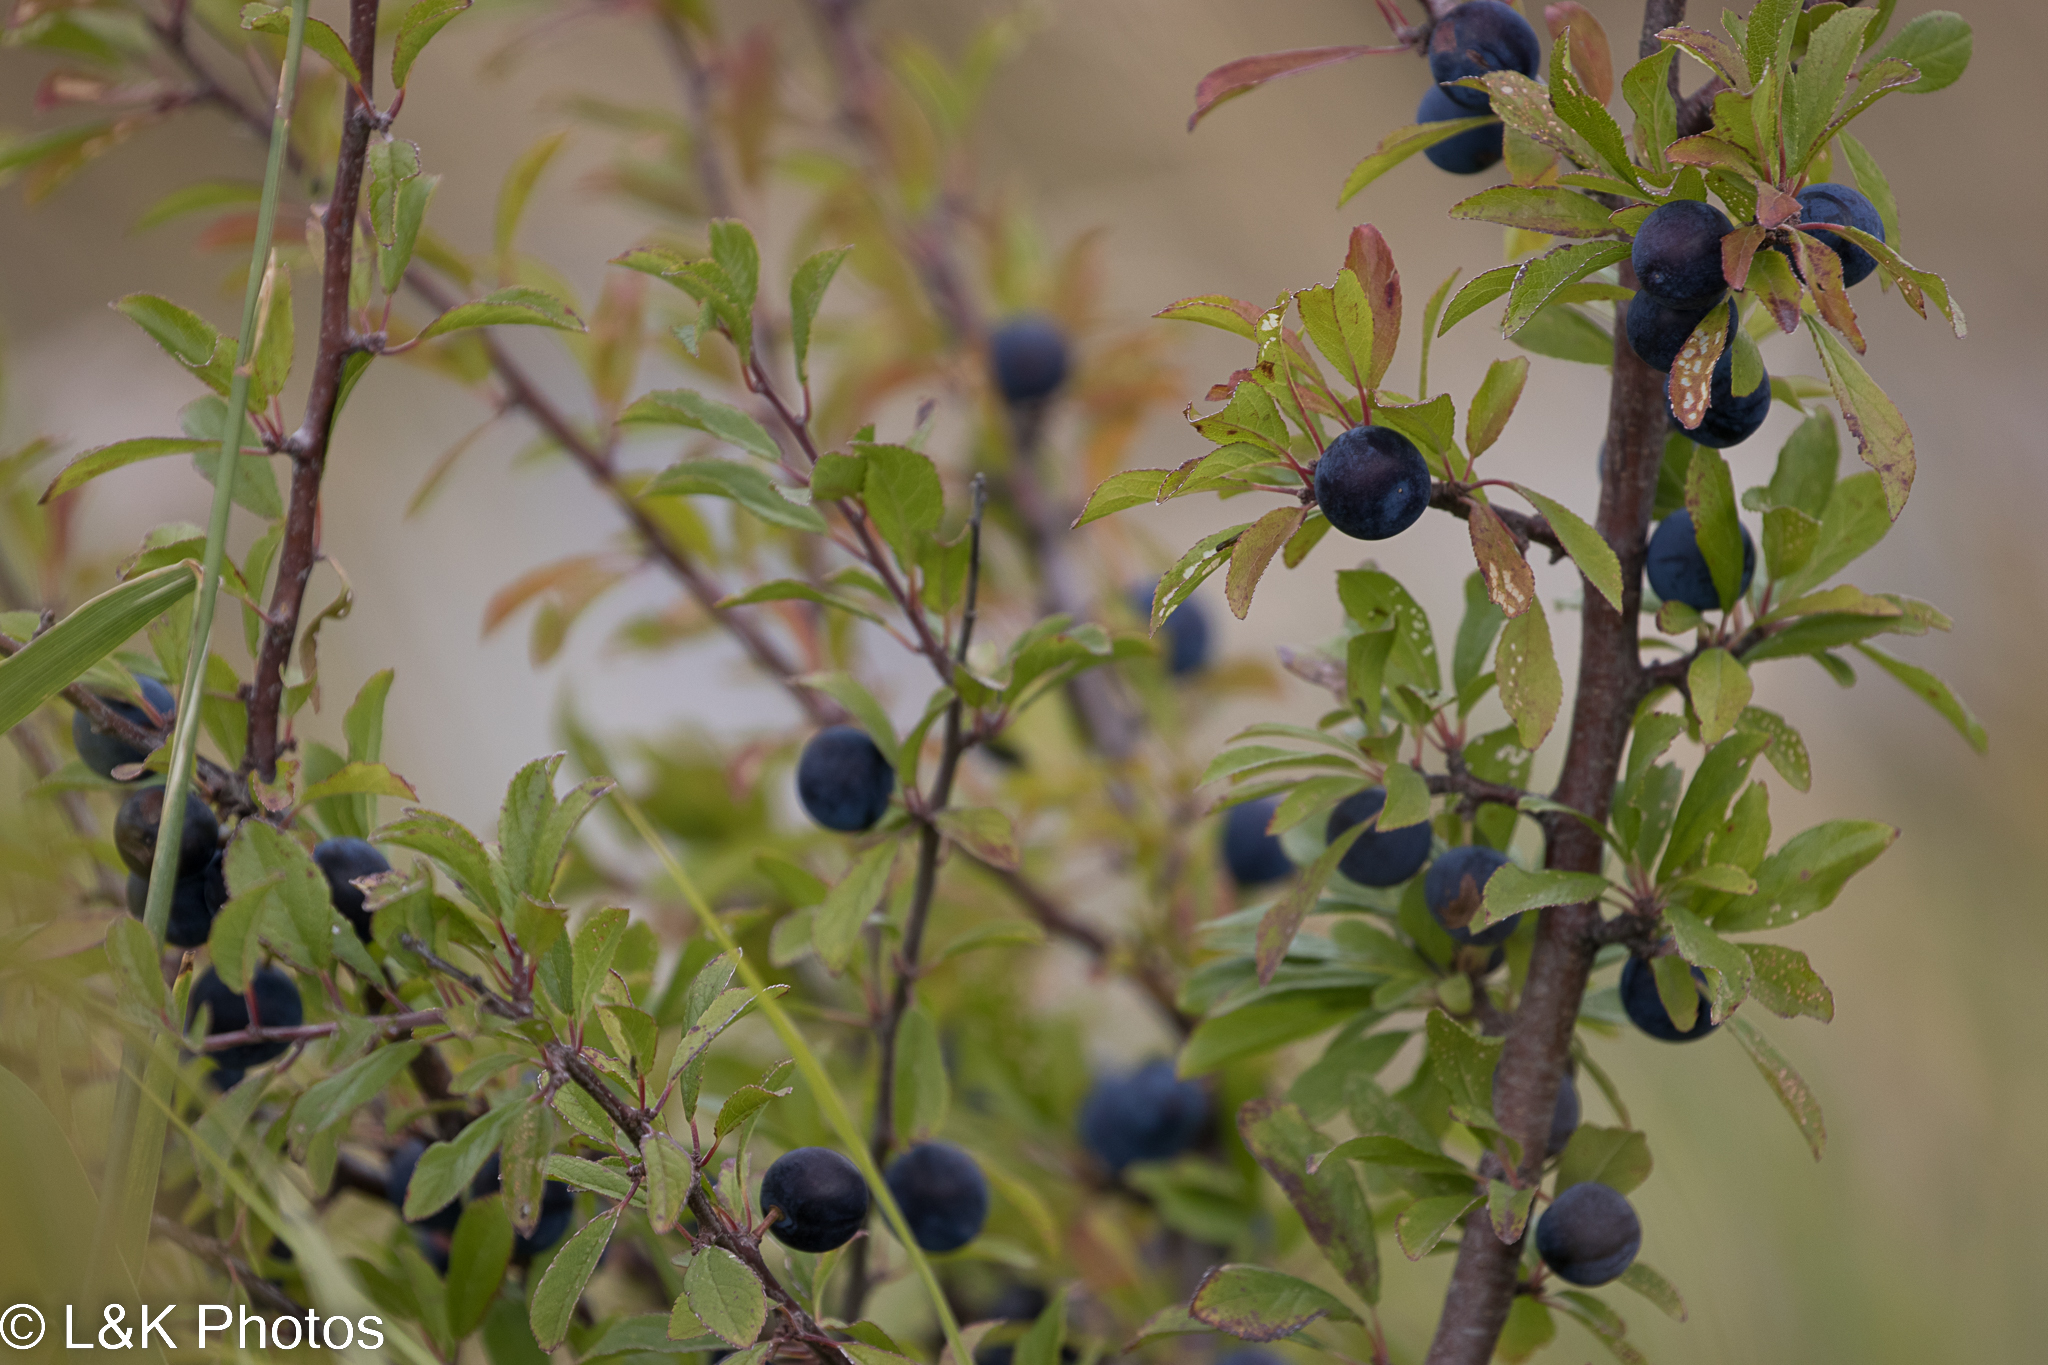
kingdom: Plantae
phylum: Tracheophyta
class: Magnoliopsida
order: Rosales
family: Rosaceae
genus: Prunus
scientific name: Prunus spinosa
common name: Blackthorn
